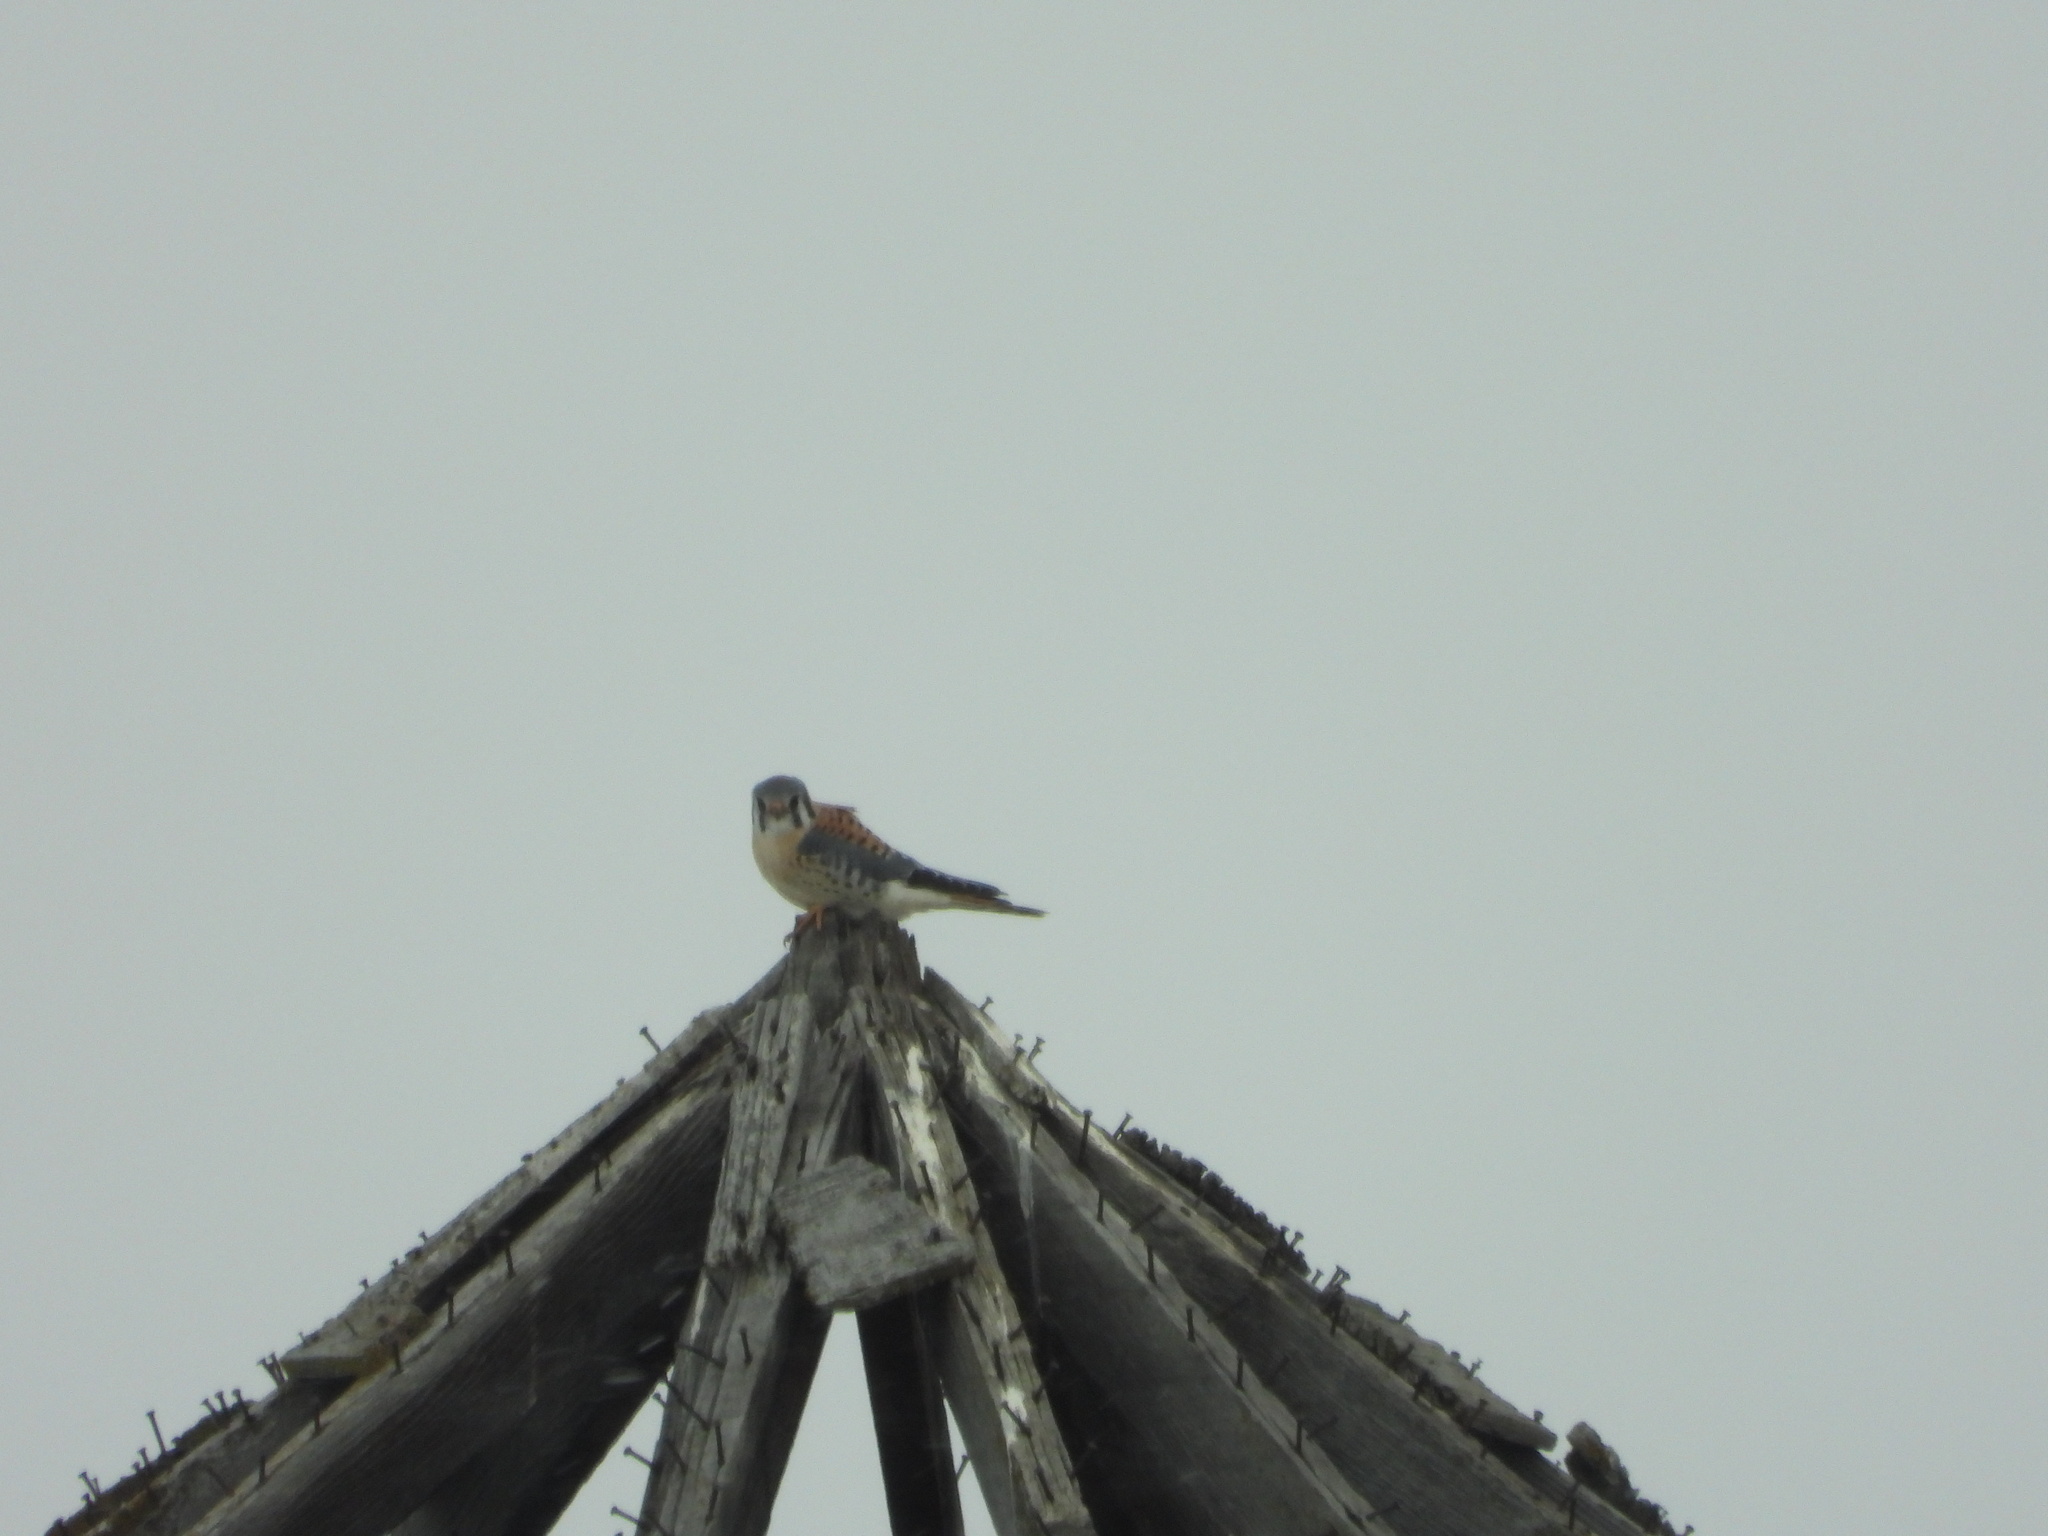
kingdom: Animalia
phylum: Chordata
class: Aves
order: Falconiformes
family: Falconidae
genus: Falco
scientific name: Falco sparverius
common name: American kestrel
